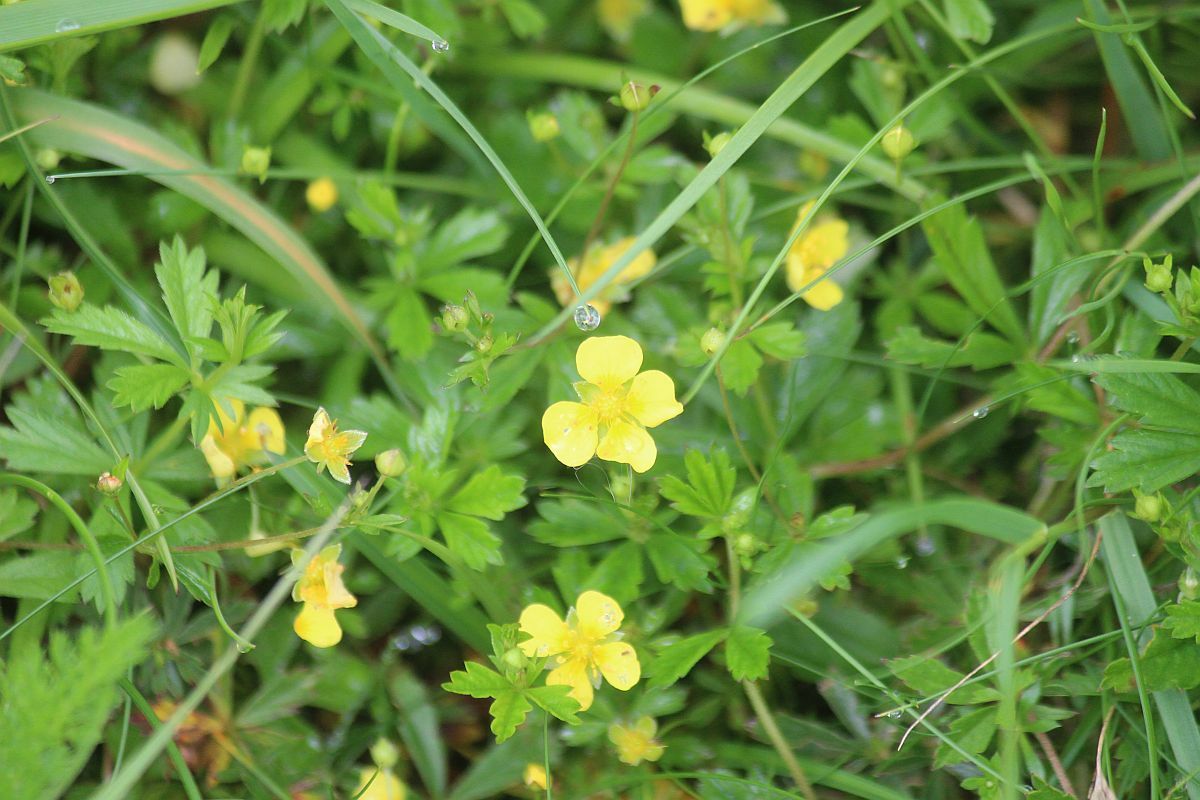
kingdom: Plantae
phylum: Tracheophyta
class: Magnoliopsida
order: Rosales
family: Rosaceae
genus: Potentilla
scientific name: Potentilla erecta
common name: Tormentil
